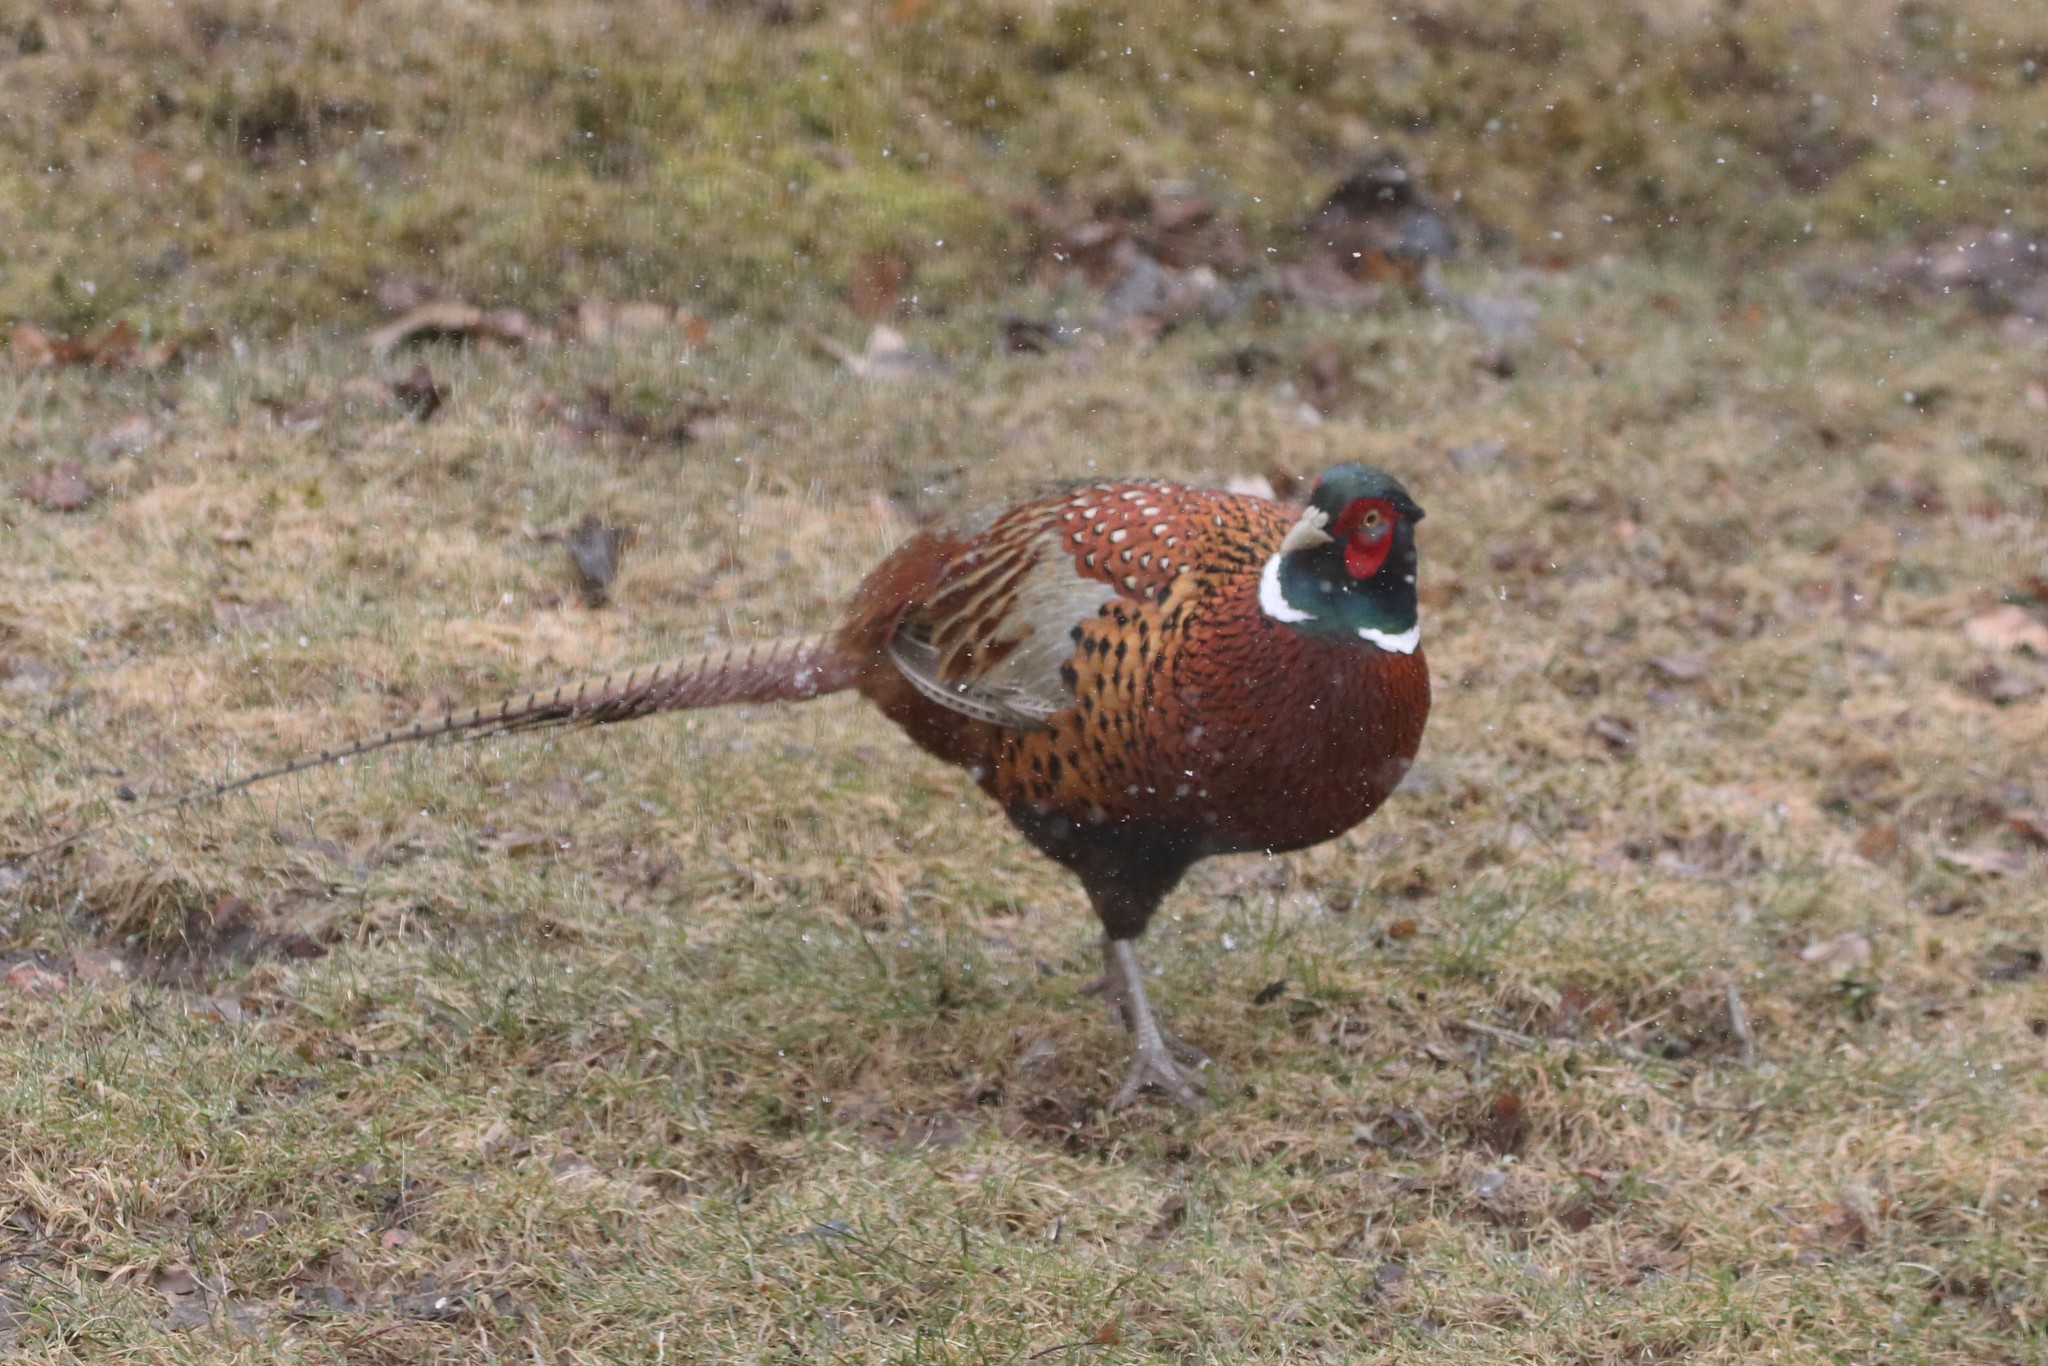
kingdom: Animalia
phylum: Chordata
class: Aves
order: Galliformes
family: Phasianidae
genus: Phasianus
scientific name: Phasianus colchicus
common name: Common pheasant
